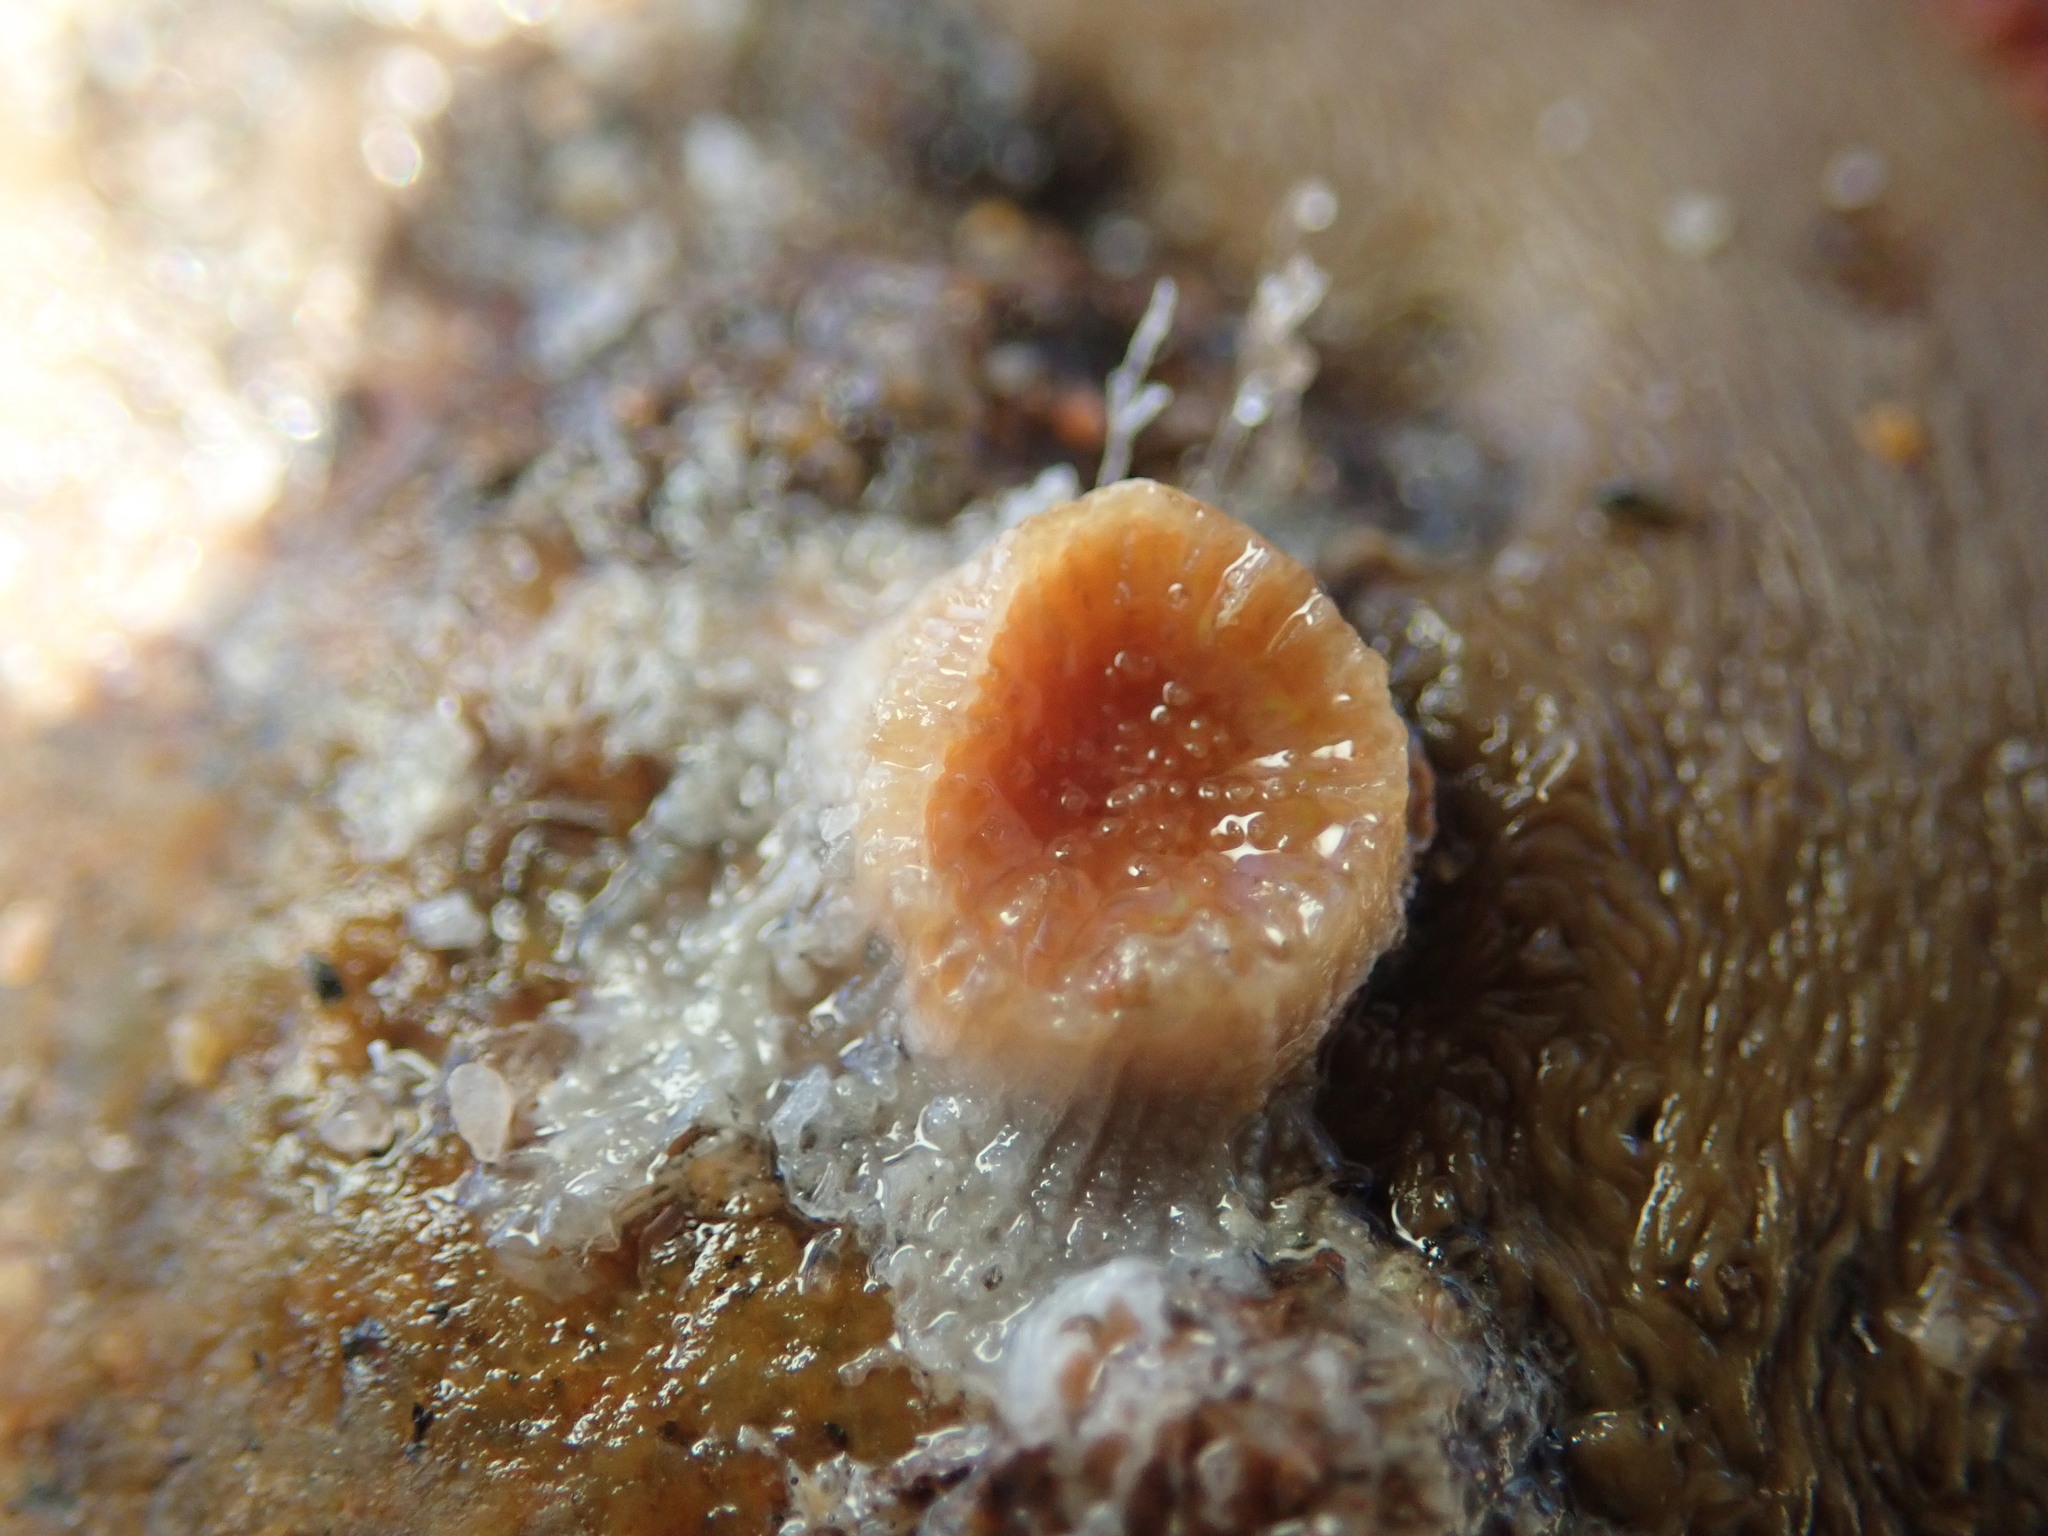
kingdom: Animalia
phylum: Cnidaria
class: Anthozoa
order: Scleractinia
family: Astrangiidae
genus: Astrangia
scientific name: Astrangia haimei
